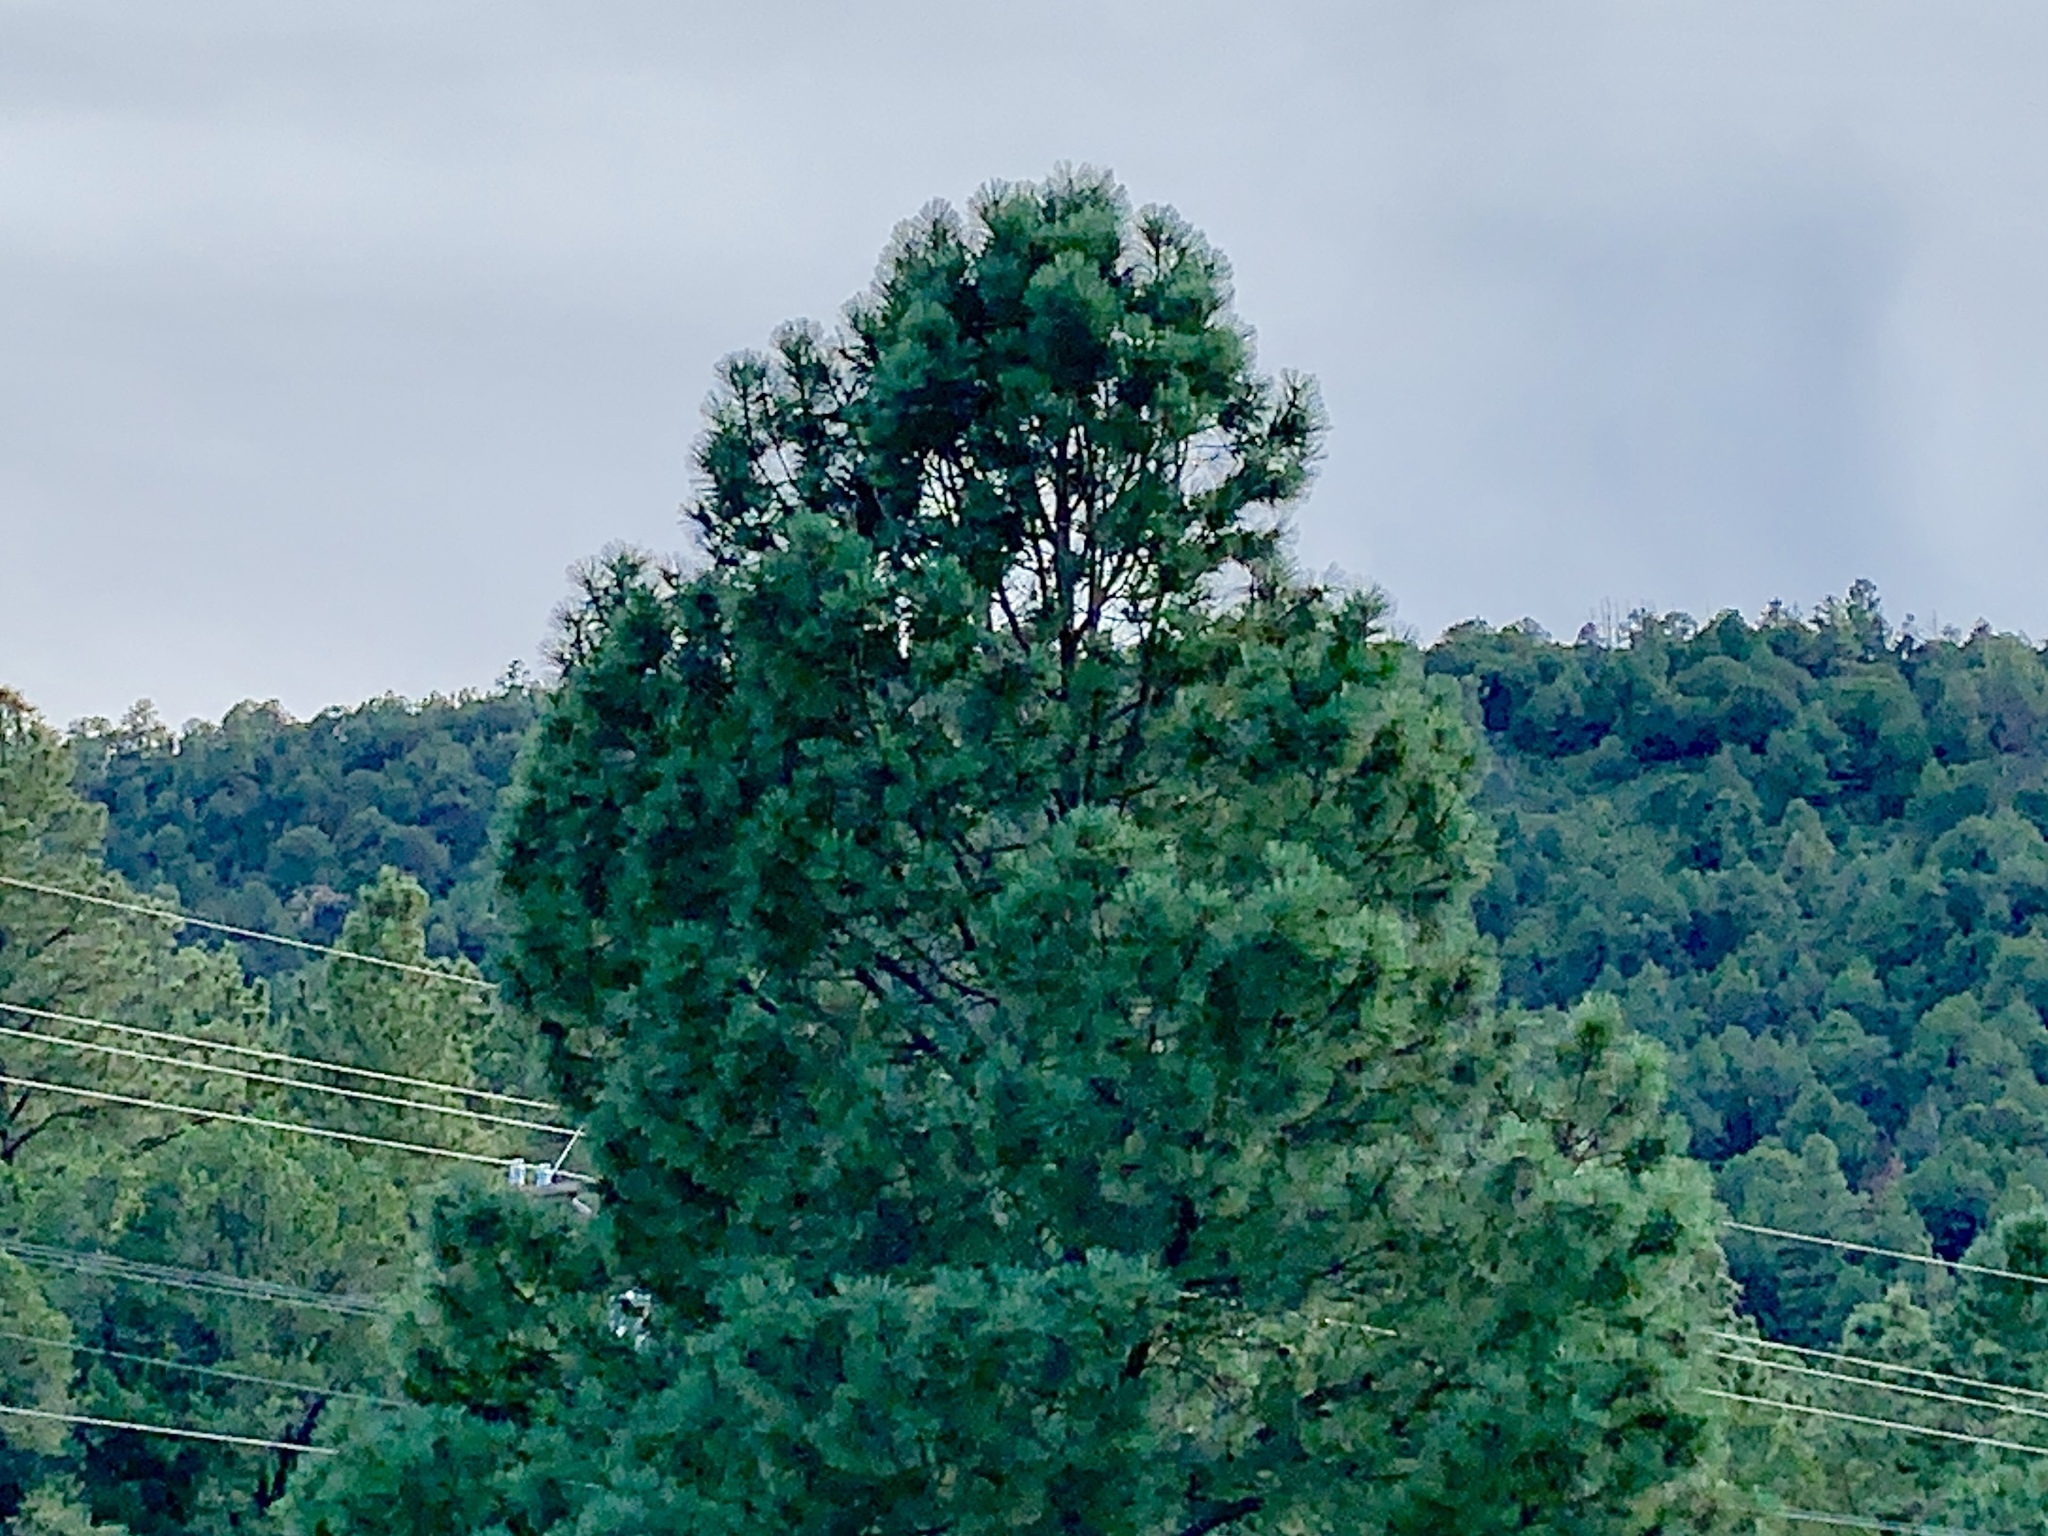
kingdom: Plantae
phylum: Tracheophyta
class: Pinopsida
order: Pinales
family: Pinaceae
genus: Pinus
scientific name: Pinus ponderosa
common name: Western yellow-pine
